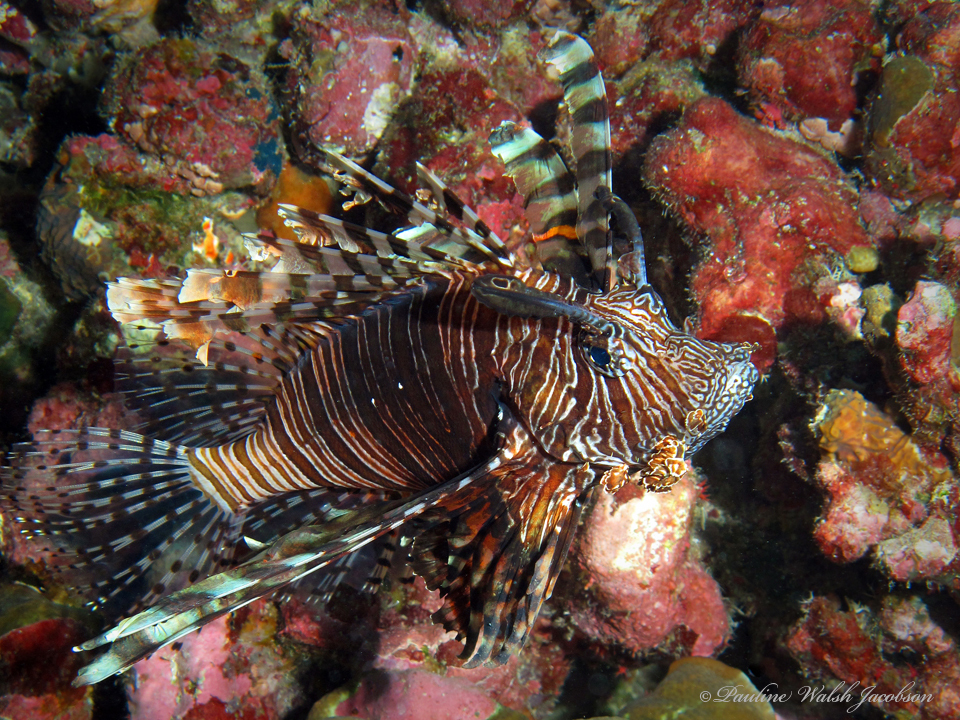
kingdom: Animalia
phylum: Chordata
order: Scorpaeniformes
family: Scorpaenidae
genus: Pterois
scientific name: Pterois volitans
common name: Lionfish
